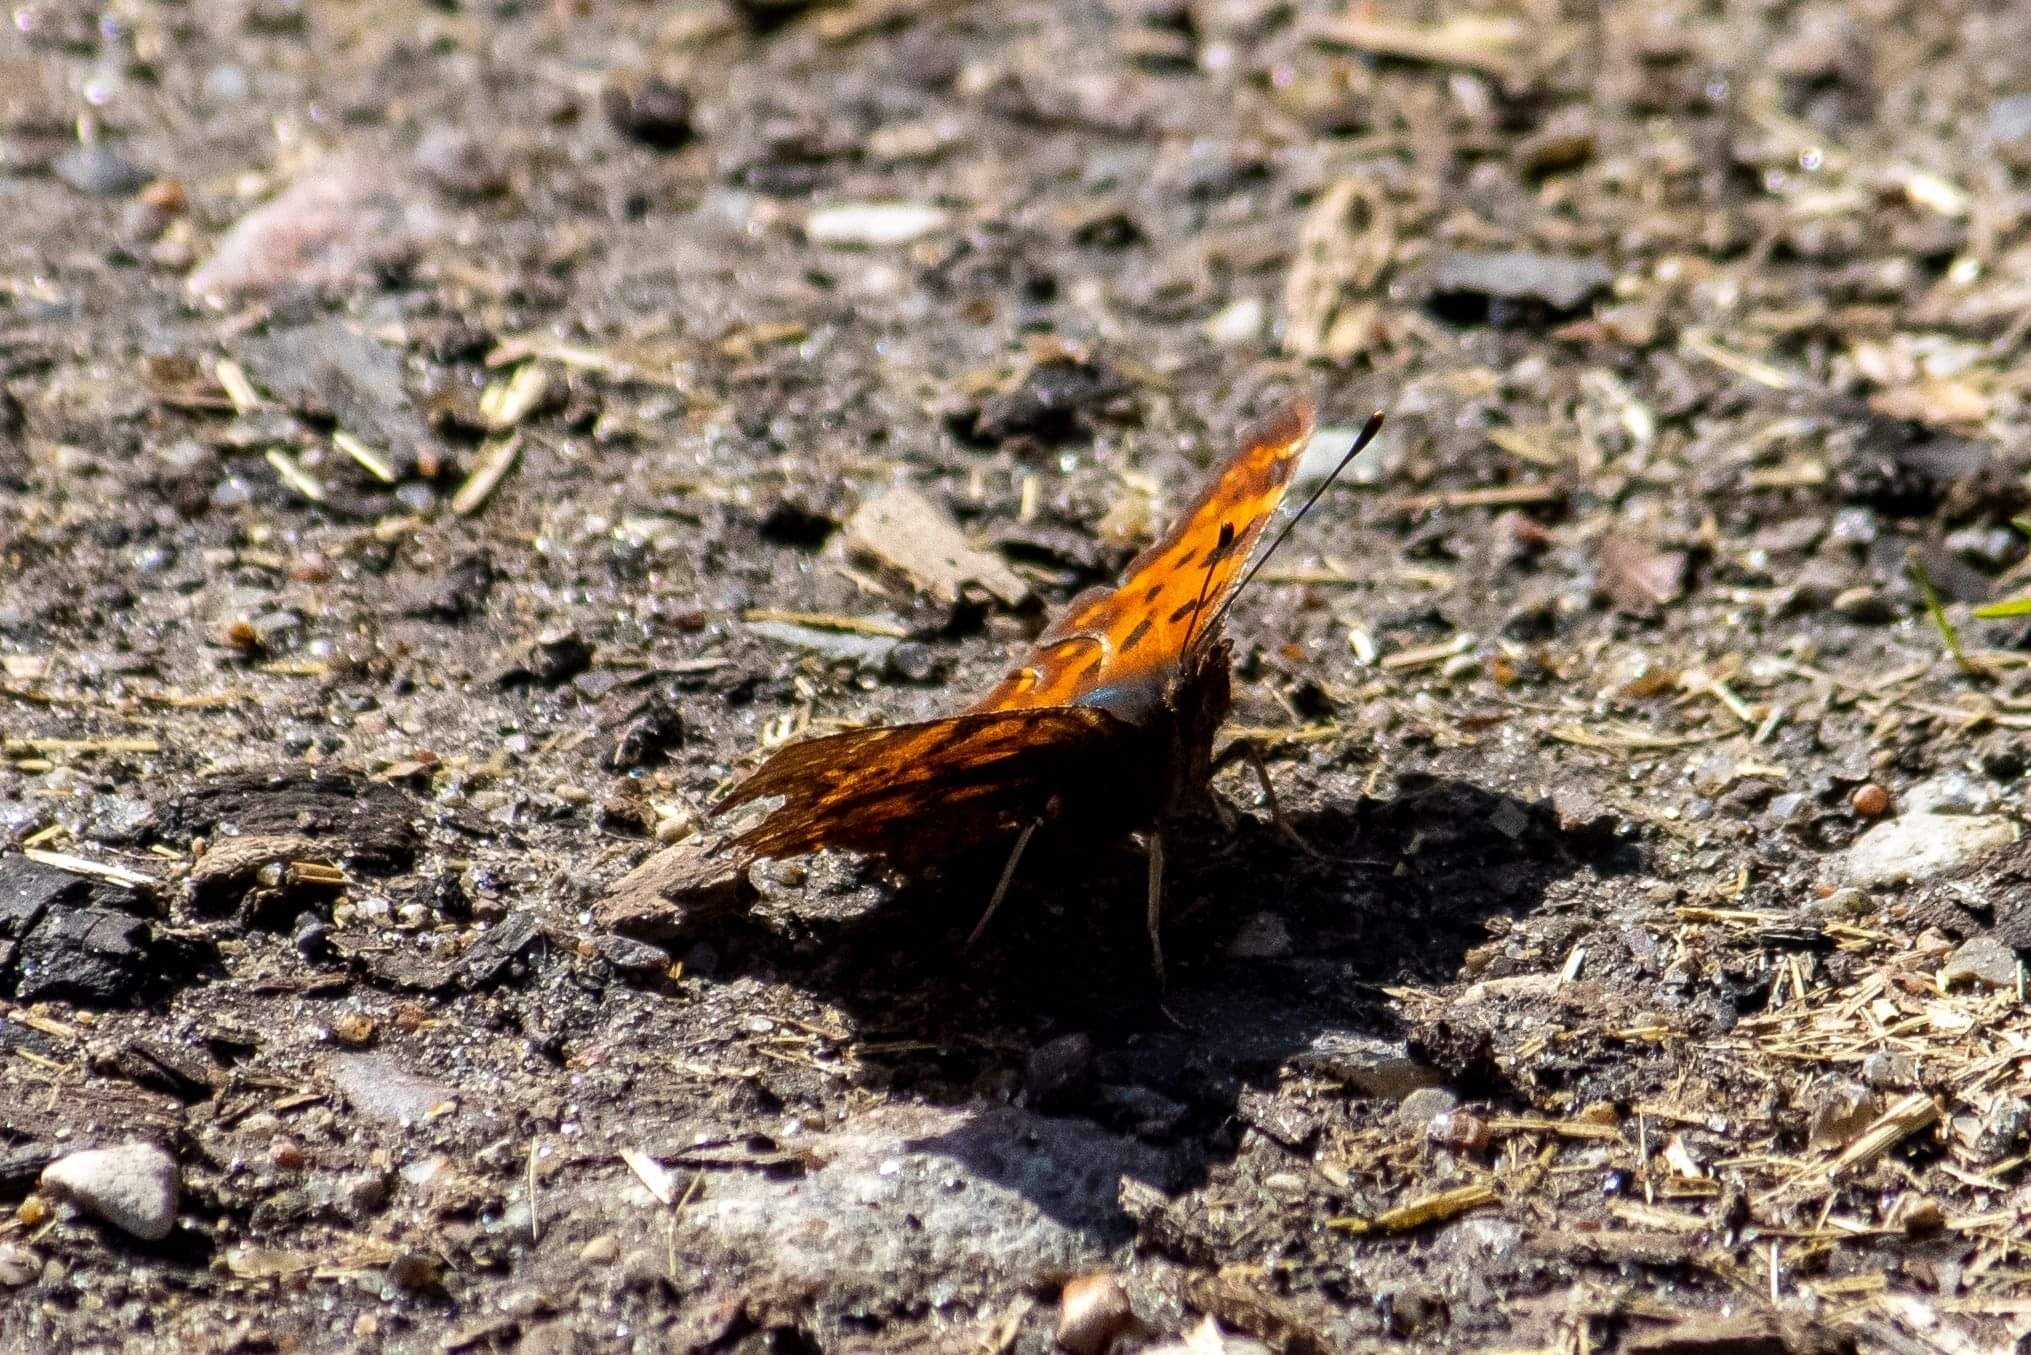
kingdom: Animalia
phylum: Arthropoda
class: Insecta
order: Lepidoptera
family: Nymphalidae
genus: Polygonia
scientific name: Polygonia c-album
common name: Comma
